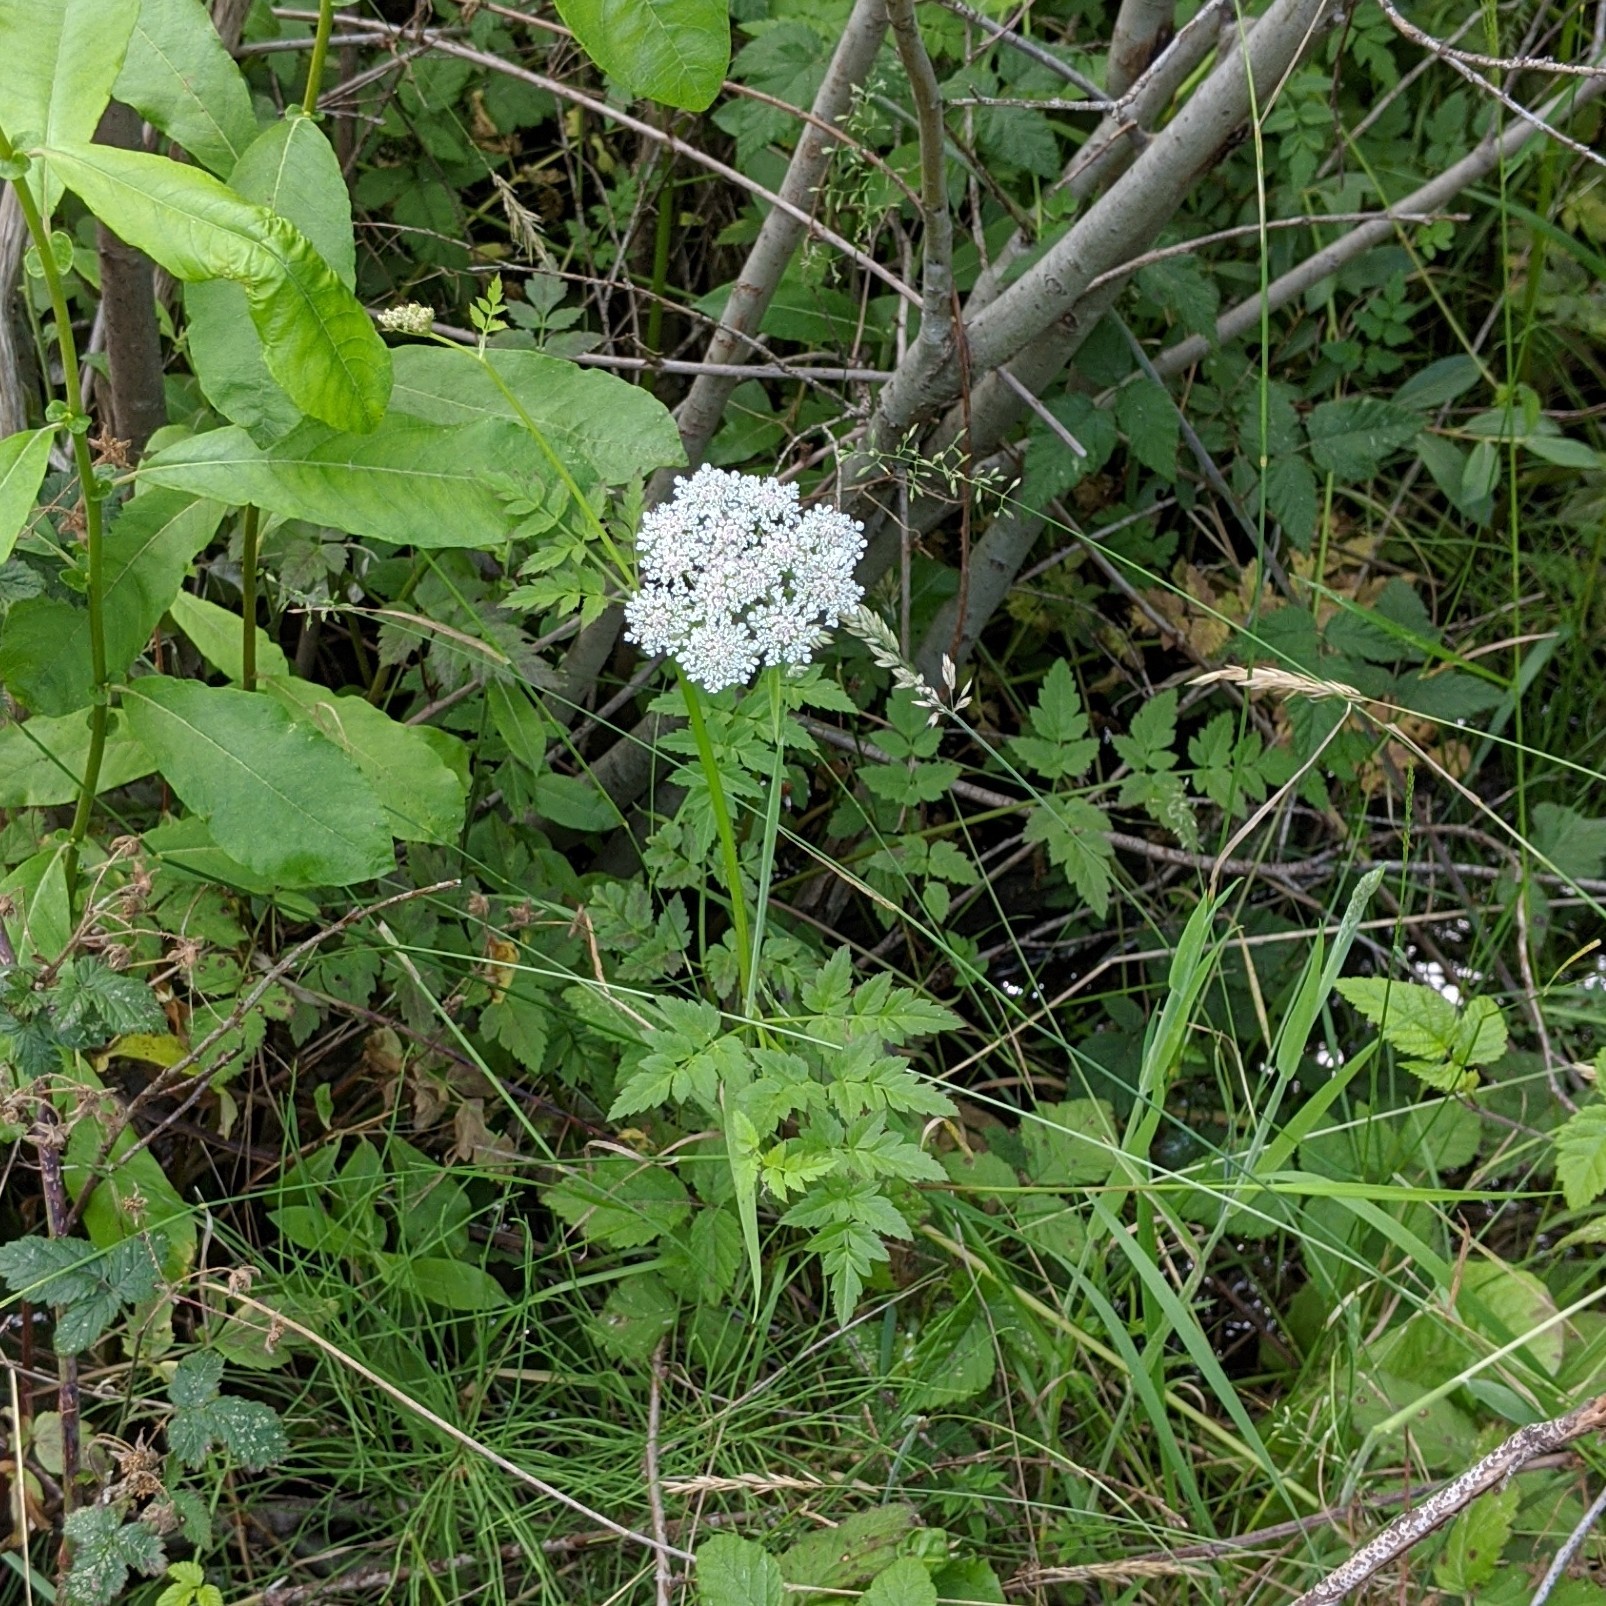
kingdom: Plantae
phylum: Tracheophyta
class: Magnoliopsida
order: Apiales
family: Apiaceae
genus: Oenanthe
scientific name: Oenanthe sarmentosa
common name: American water-parsley
